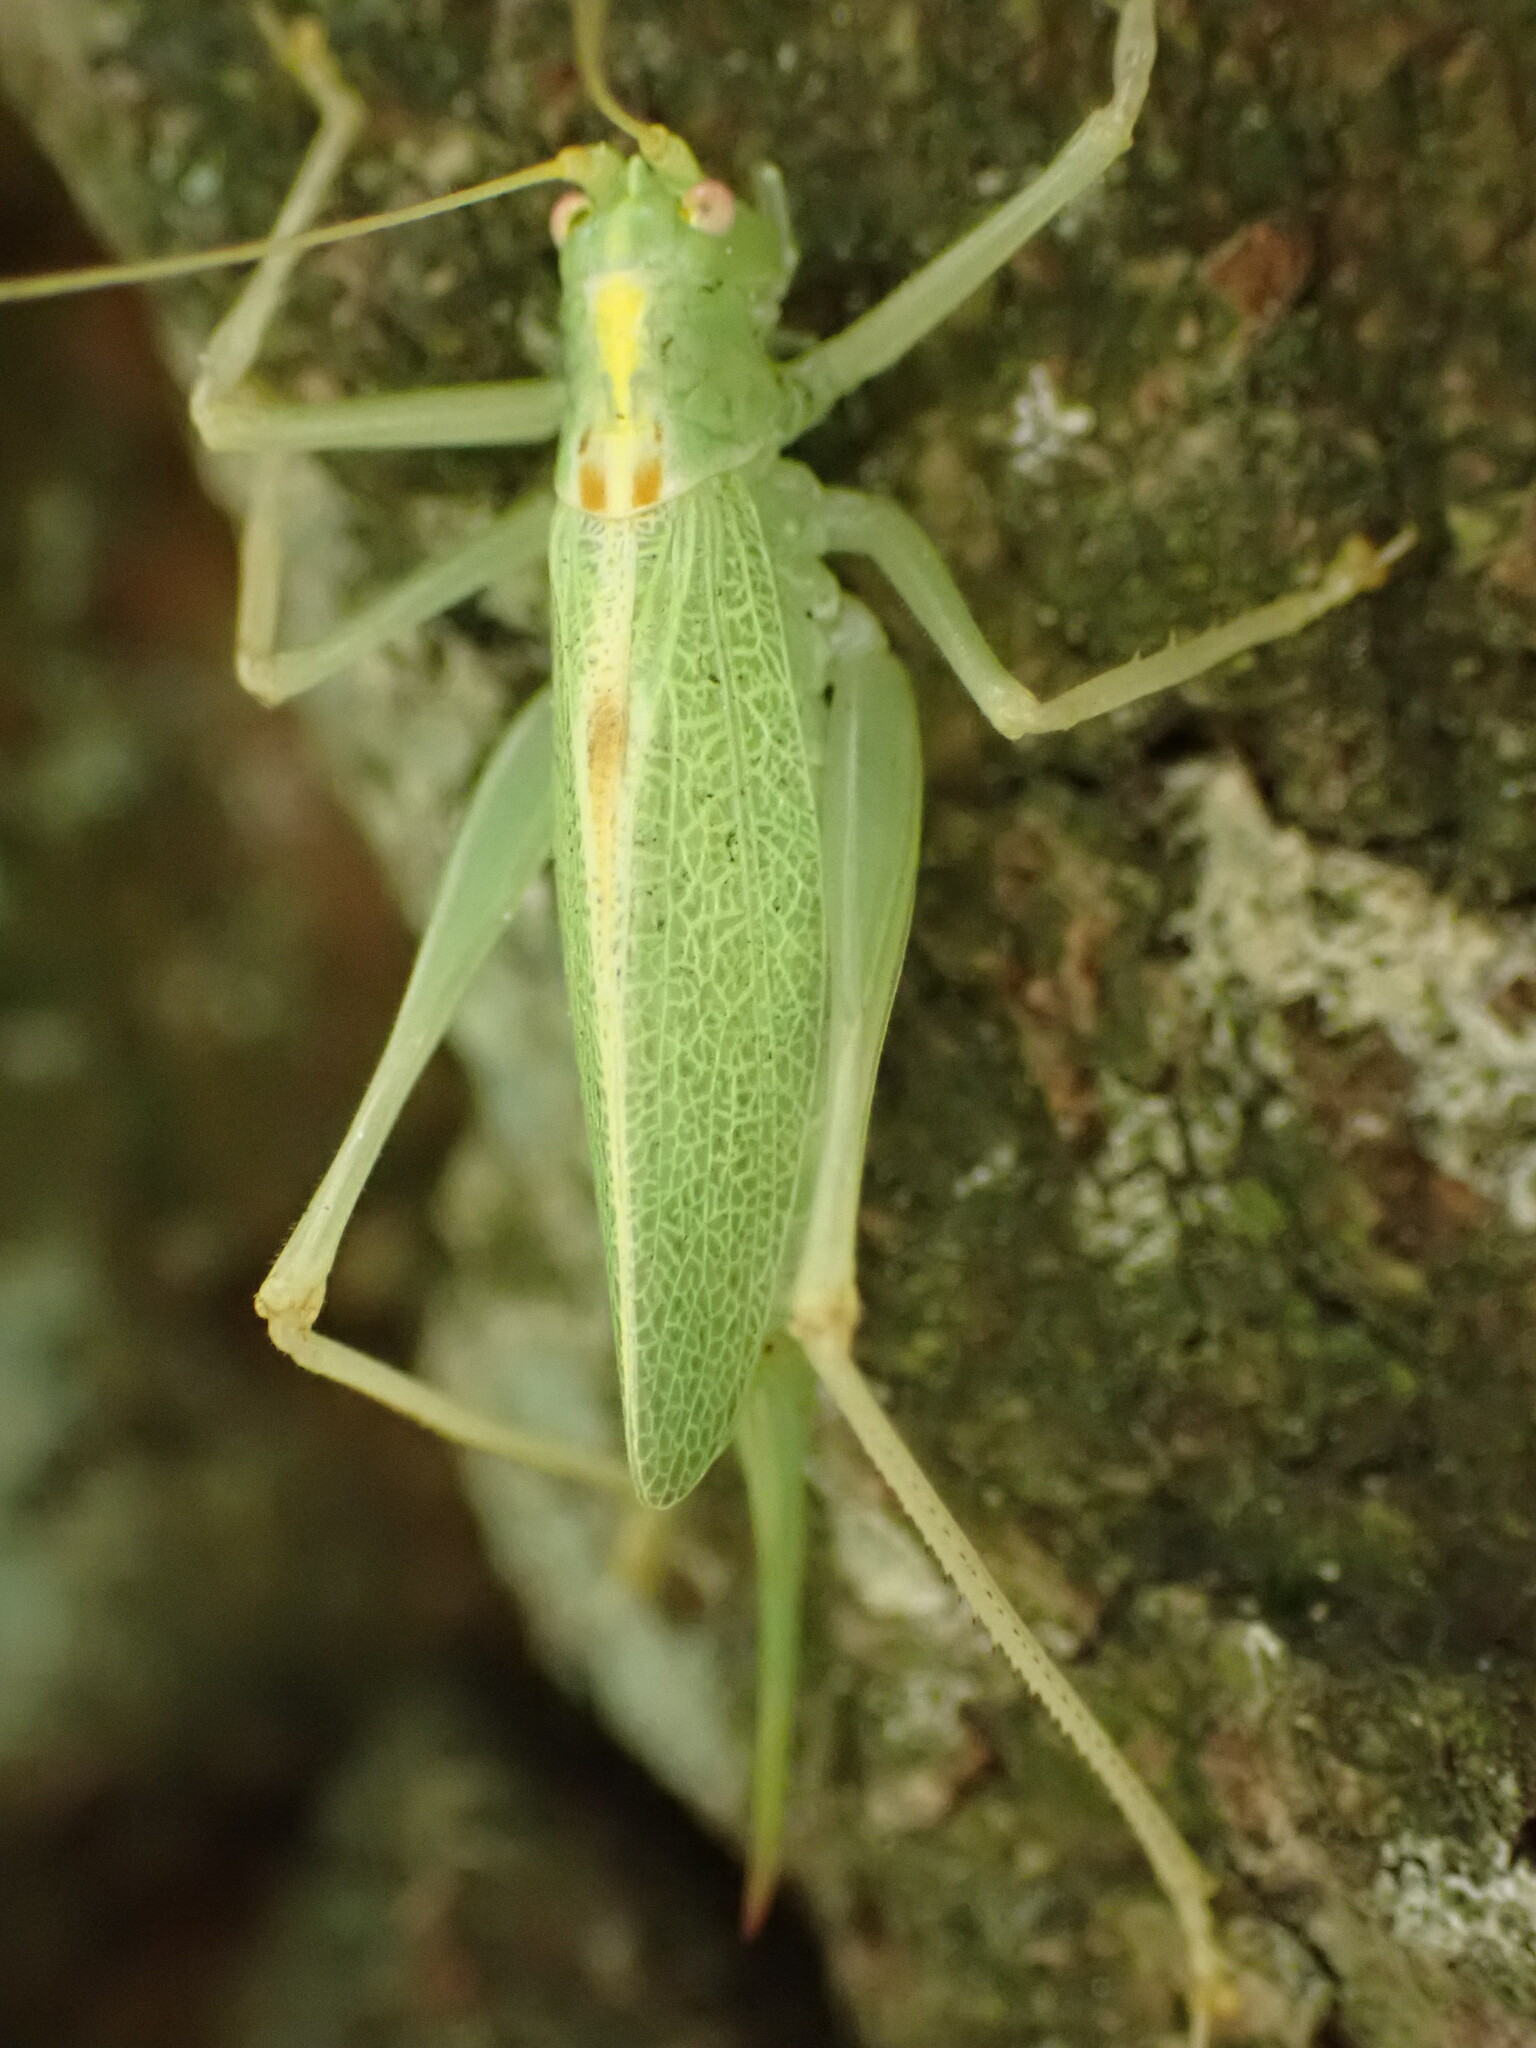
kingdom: Animalia
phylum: Arthropoda
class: Insecta
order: Orthoptera
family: Tettigoniidae
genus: Meconema
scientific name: Meconema thalassinum
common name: Oak bush-cricket
